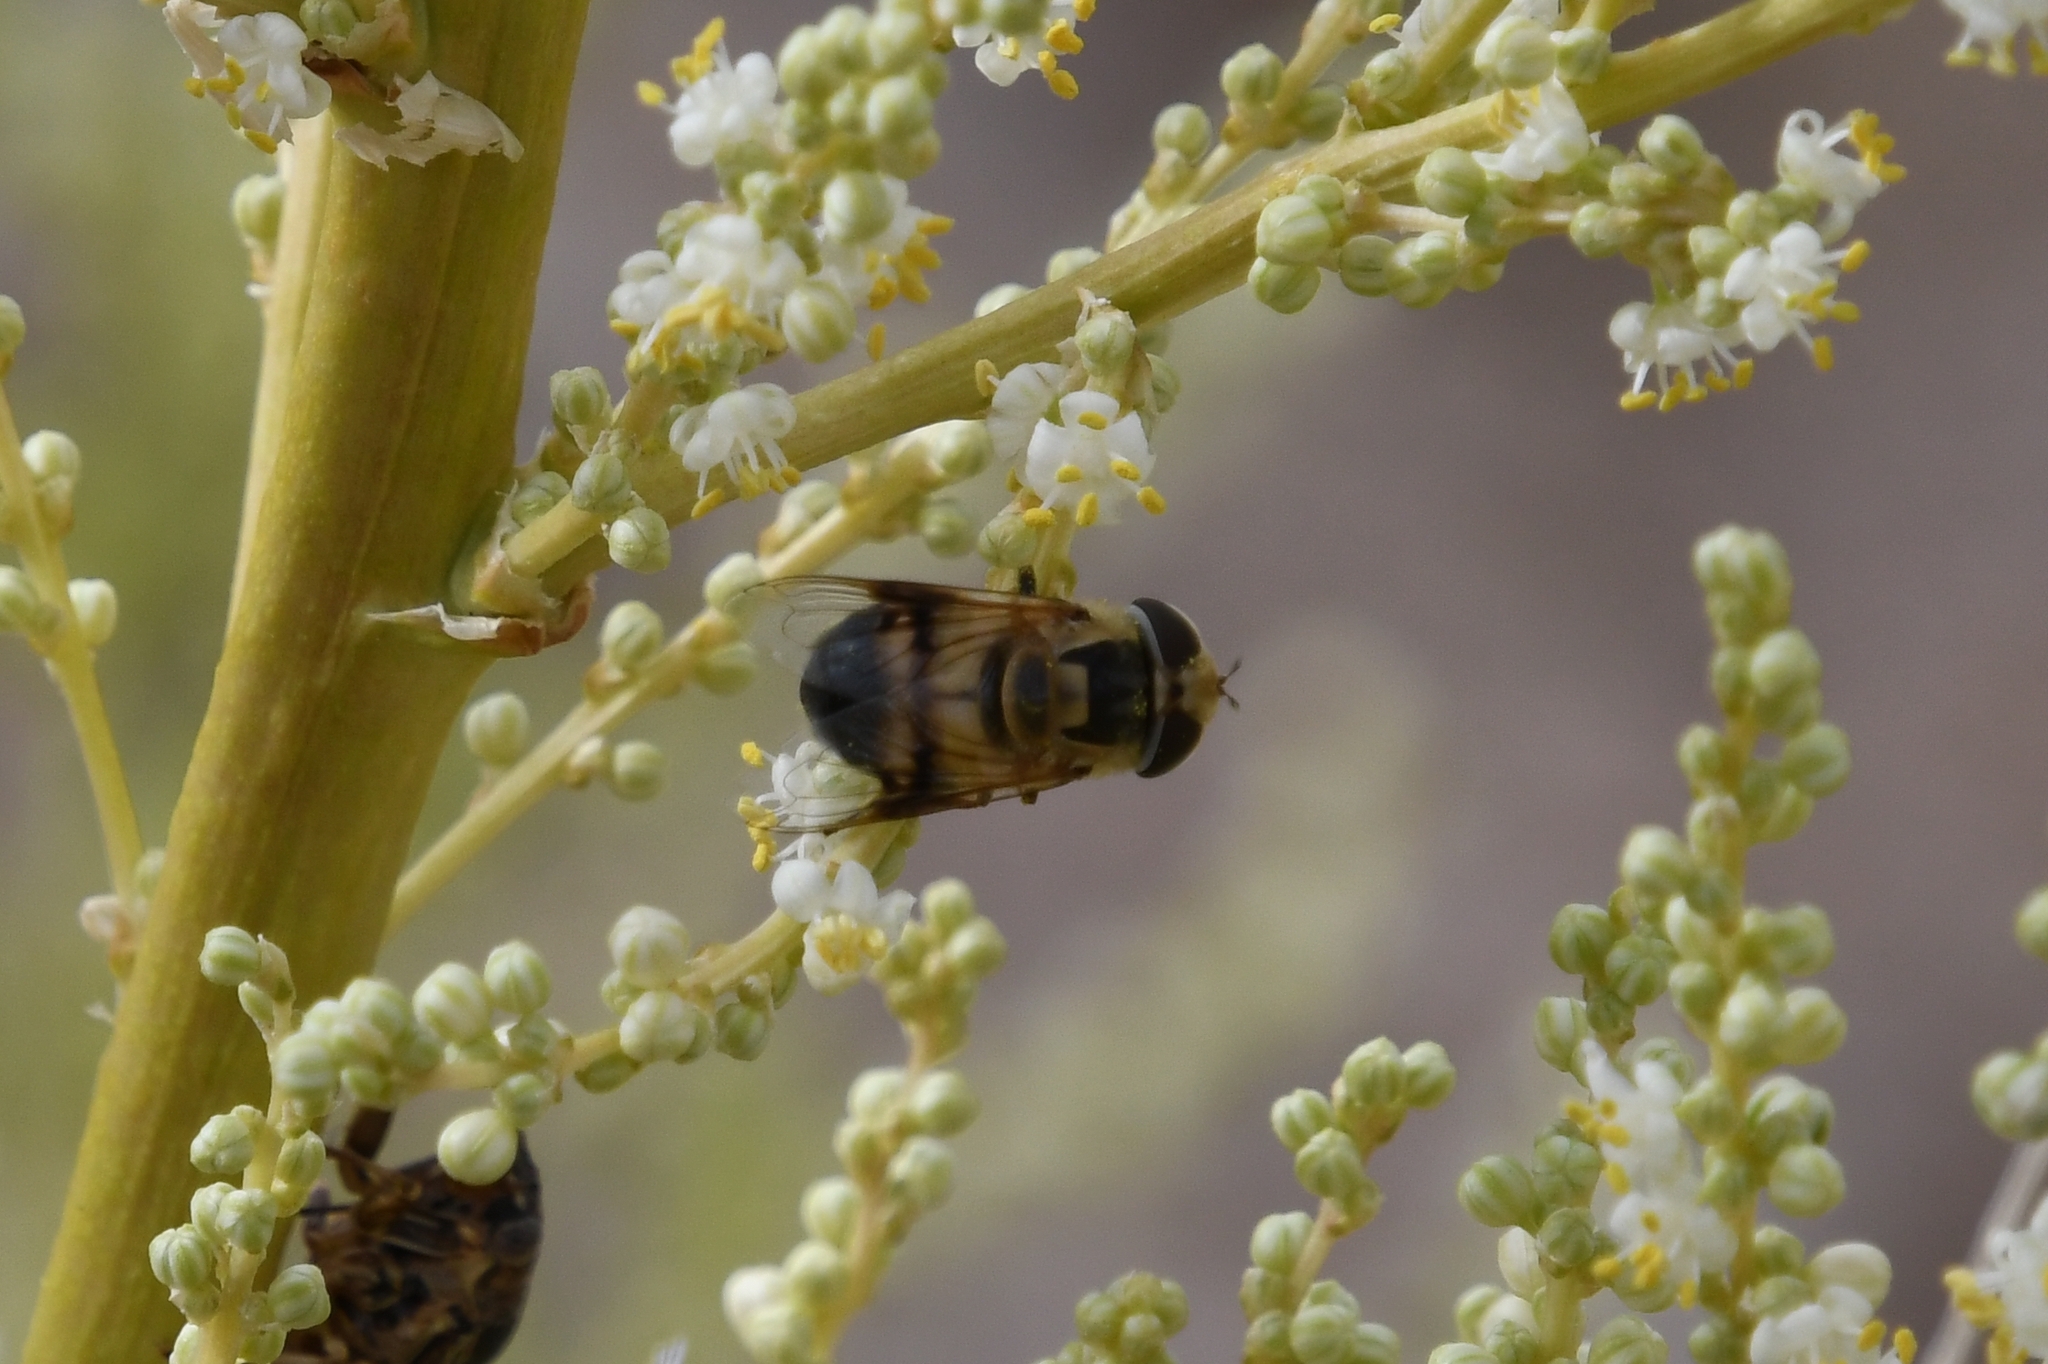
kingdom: Animalia
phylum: Arthropoda
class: Insecta
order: Diptera
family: Syrphidae
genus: Copestylum
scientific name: Copestylum apiciferum
